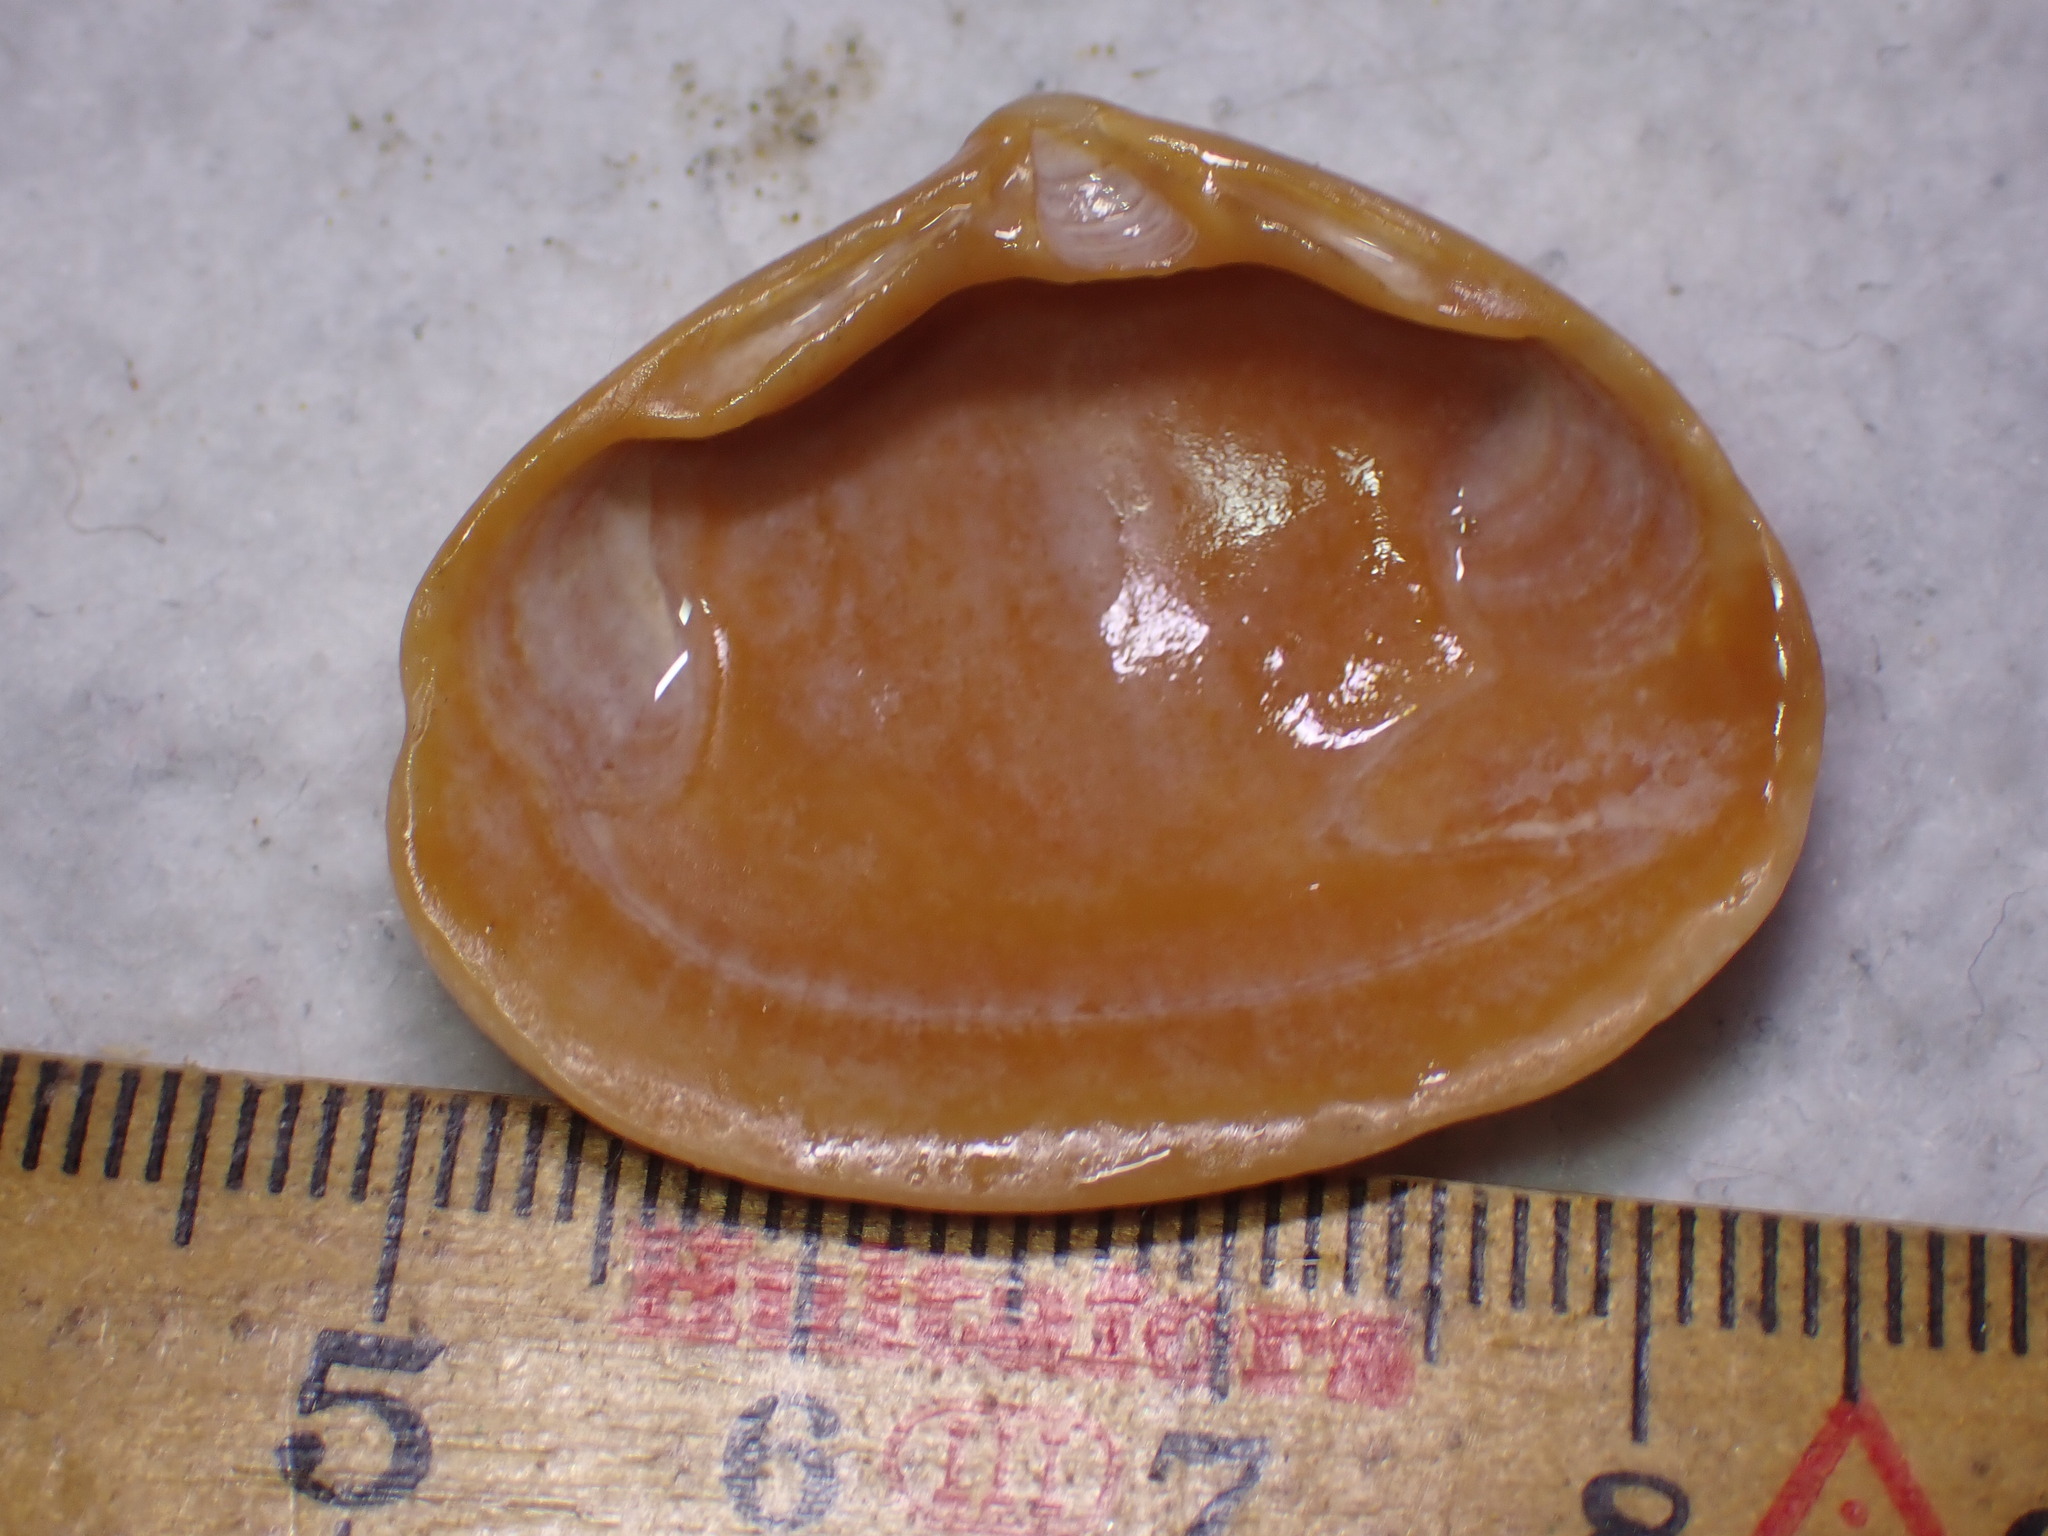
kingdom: Animalia
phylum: Mollusca
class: Bivalvia
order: Venerida
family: Mactridae
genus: Spisula
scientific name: Spisula solida
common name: Thick trough shell
